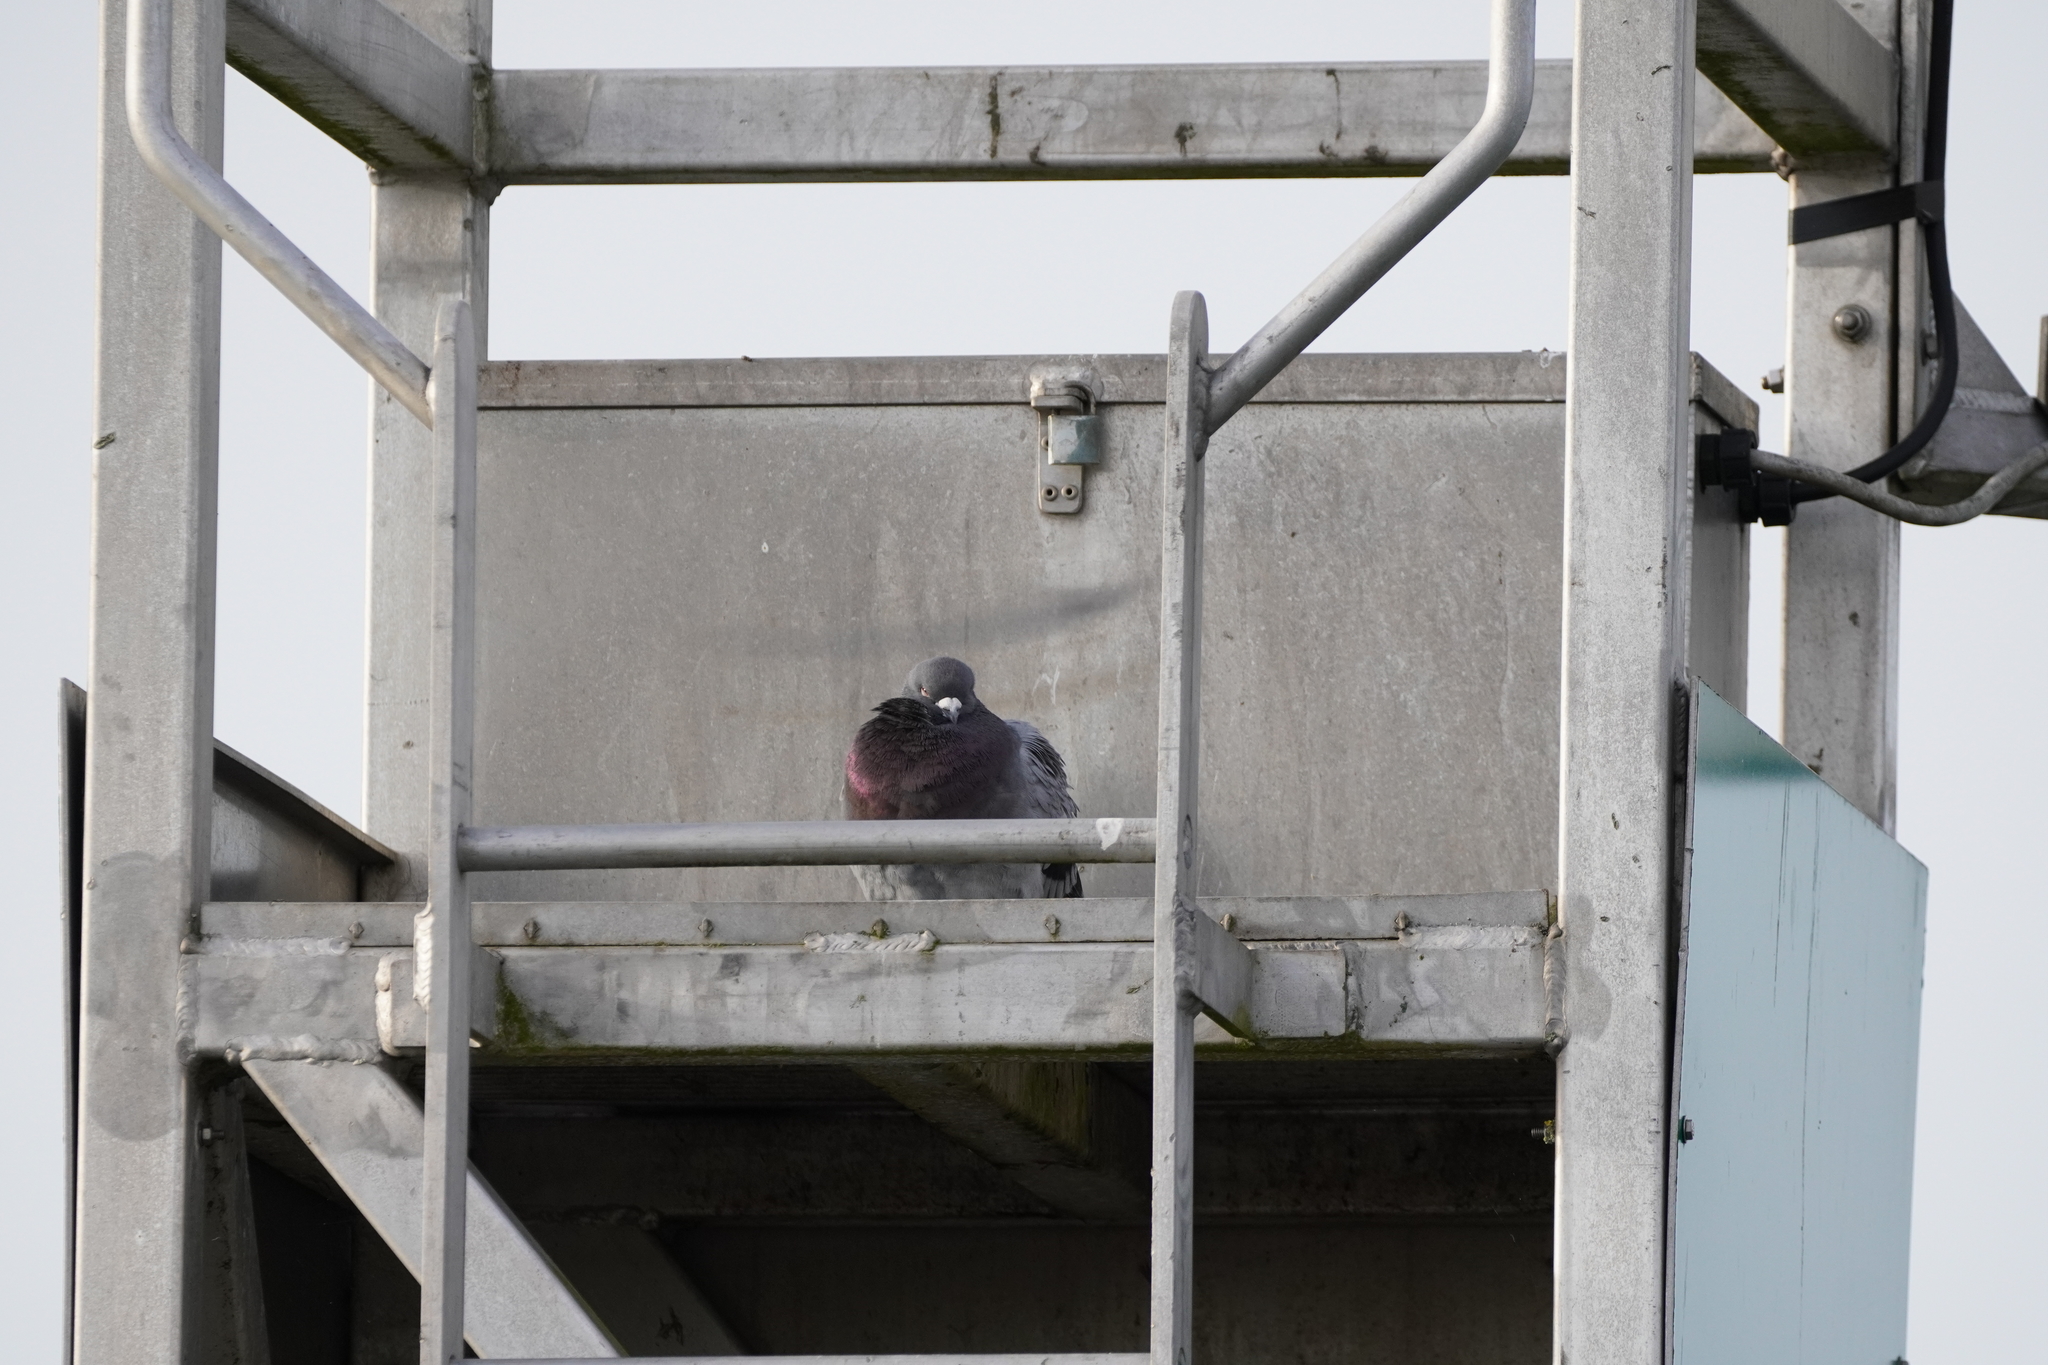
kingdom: Animalia
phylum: Chordata
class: Aves
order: Columbiformes
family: Columbidae
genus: Columba
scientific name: Columba livia
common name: Rock pigeon
